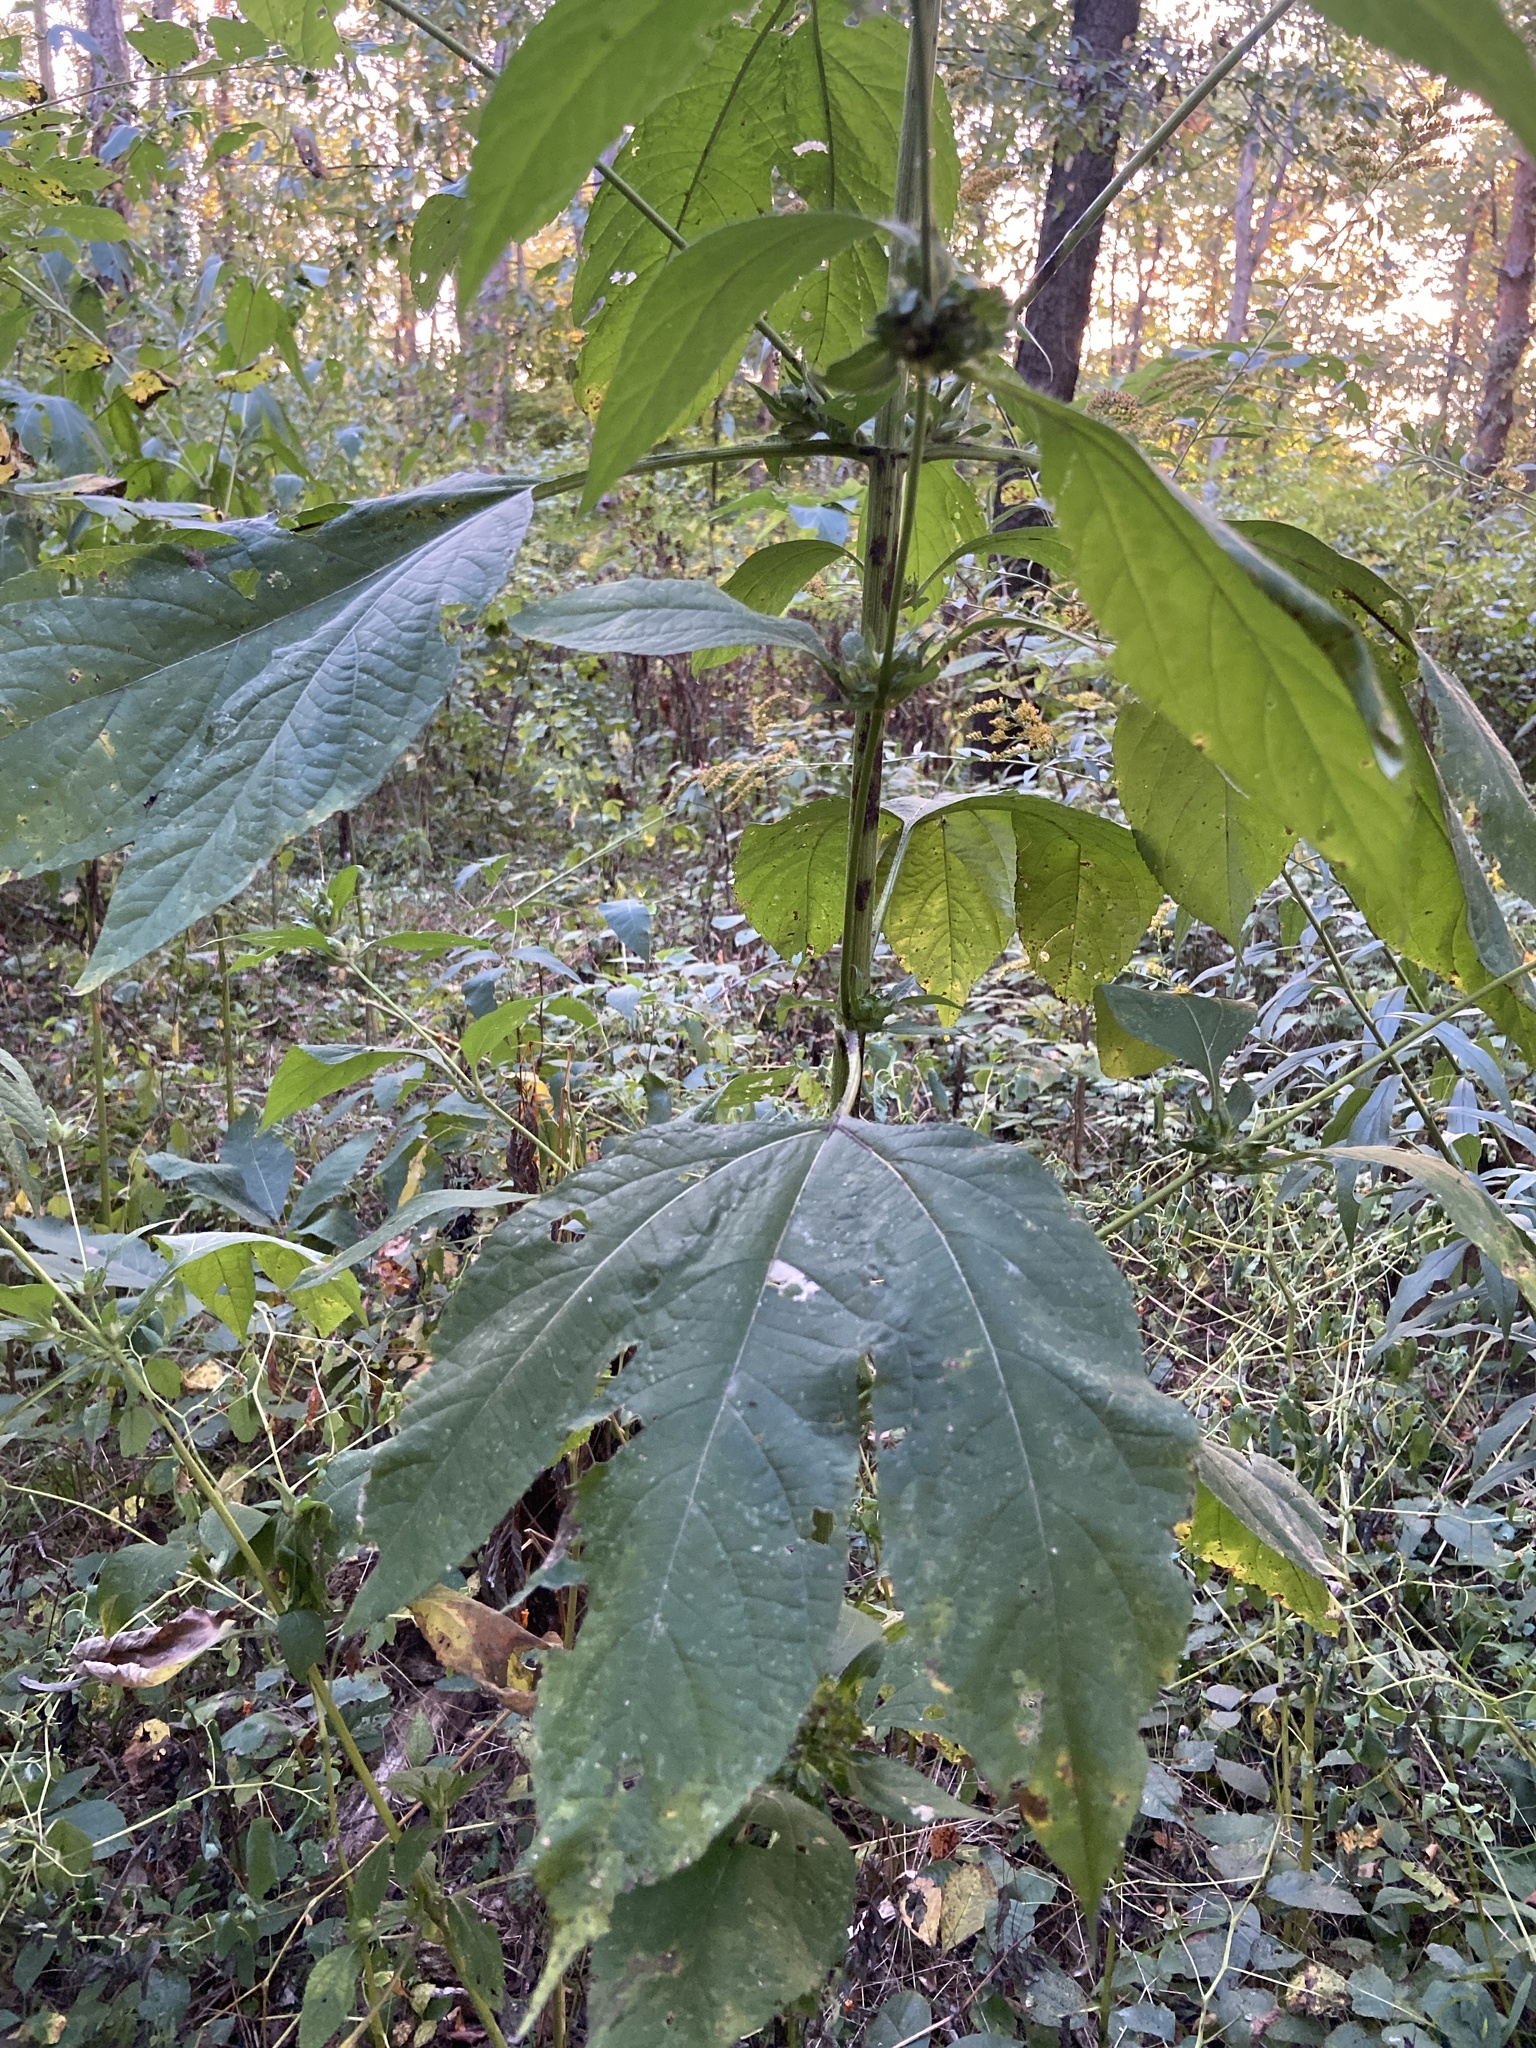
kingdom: Plantae
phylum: Tracheophyta
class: Magnoliopsida
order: Asterales
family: Asteraceae
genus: Ambrosia
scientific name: Ambrosia trifida
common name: Giant ragweed
